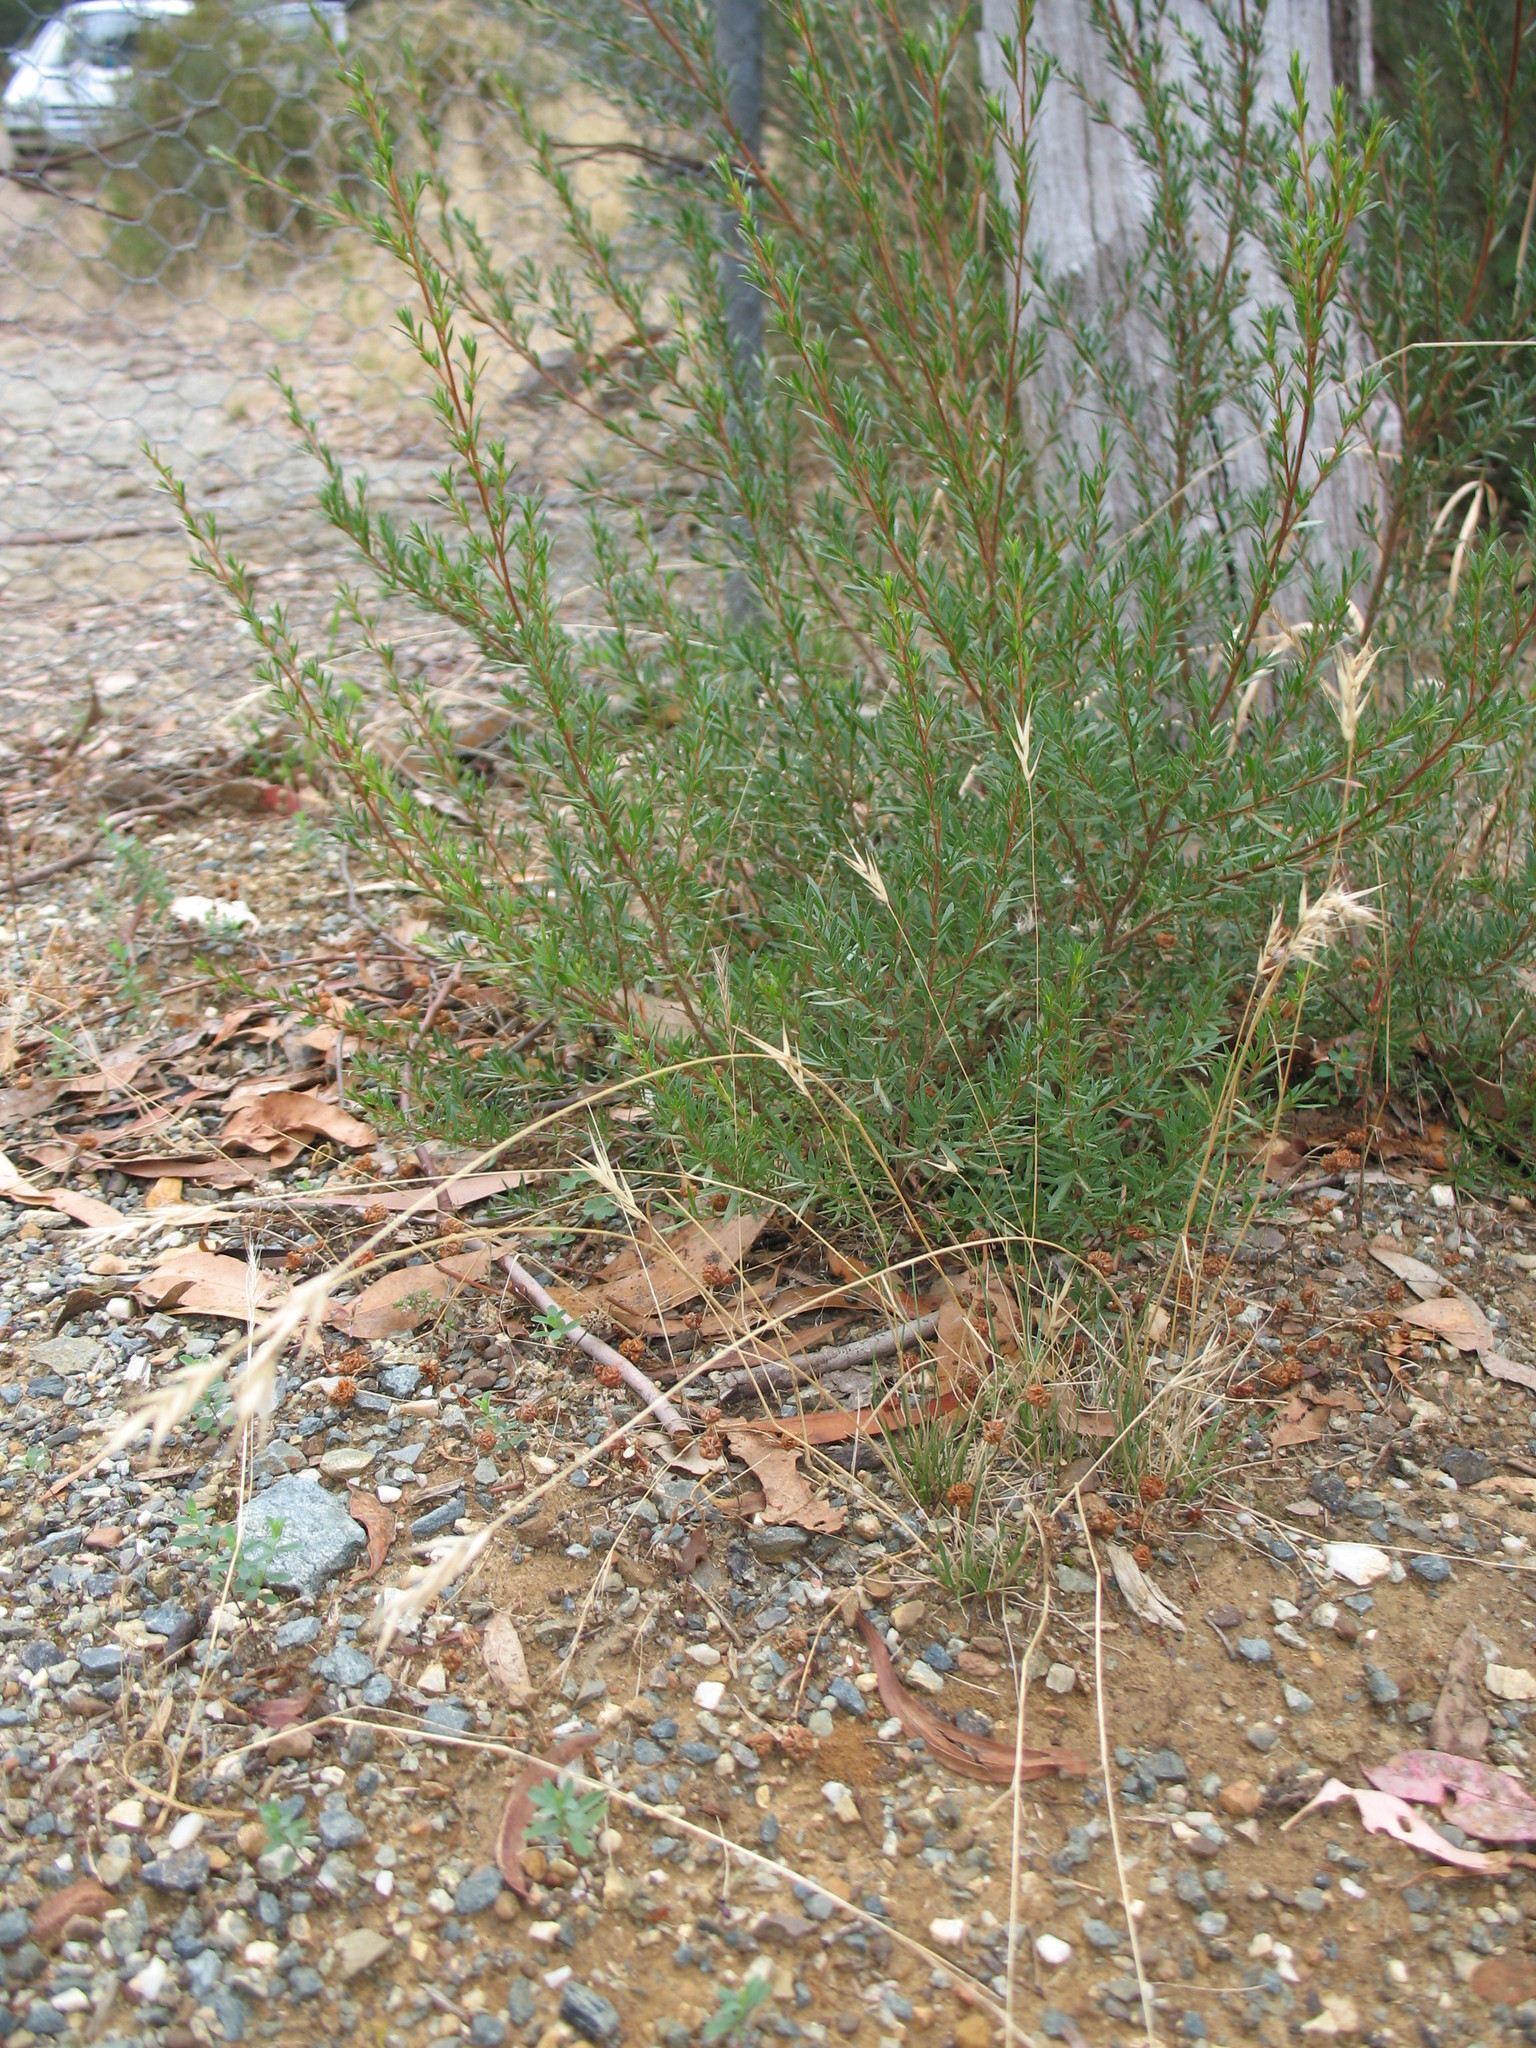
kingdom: Plantae
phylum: Tracheophyta
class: Liliopsida
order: Poales
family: Poaceae
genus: Rytidosperma
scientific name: Rytidosperma caespitosum
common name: Tufted wallaby grass
